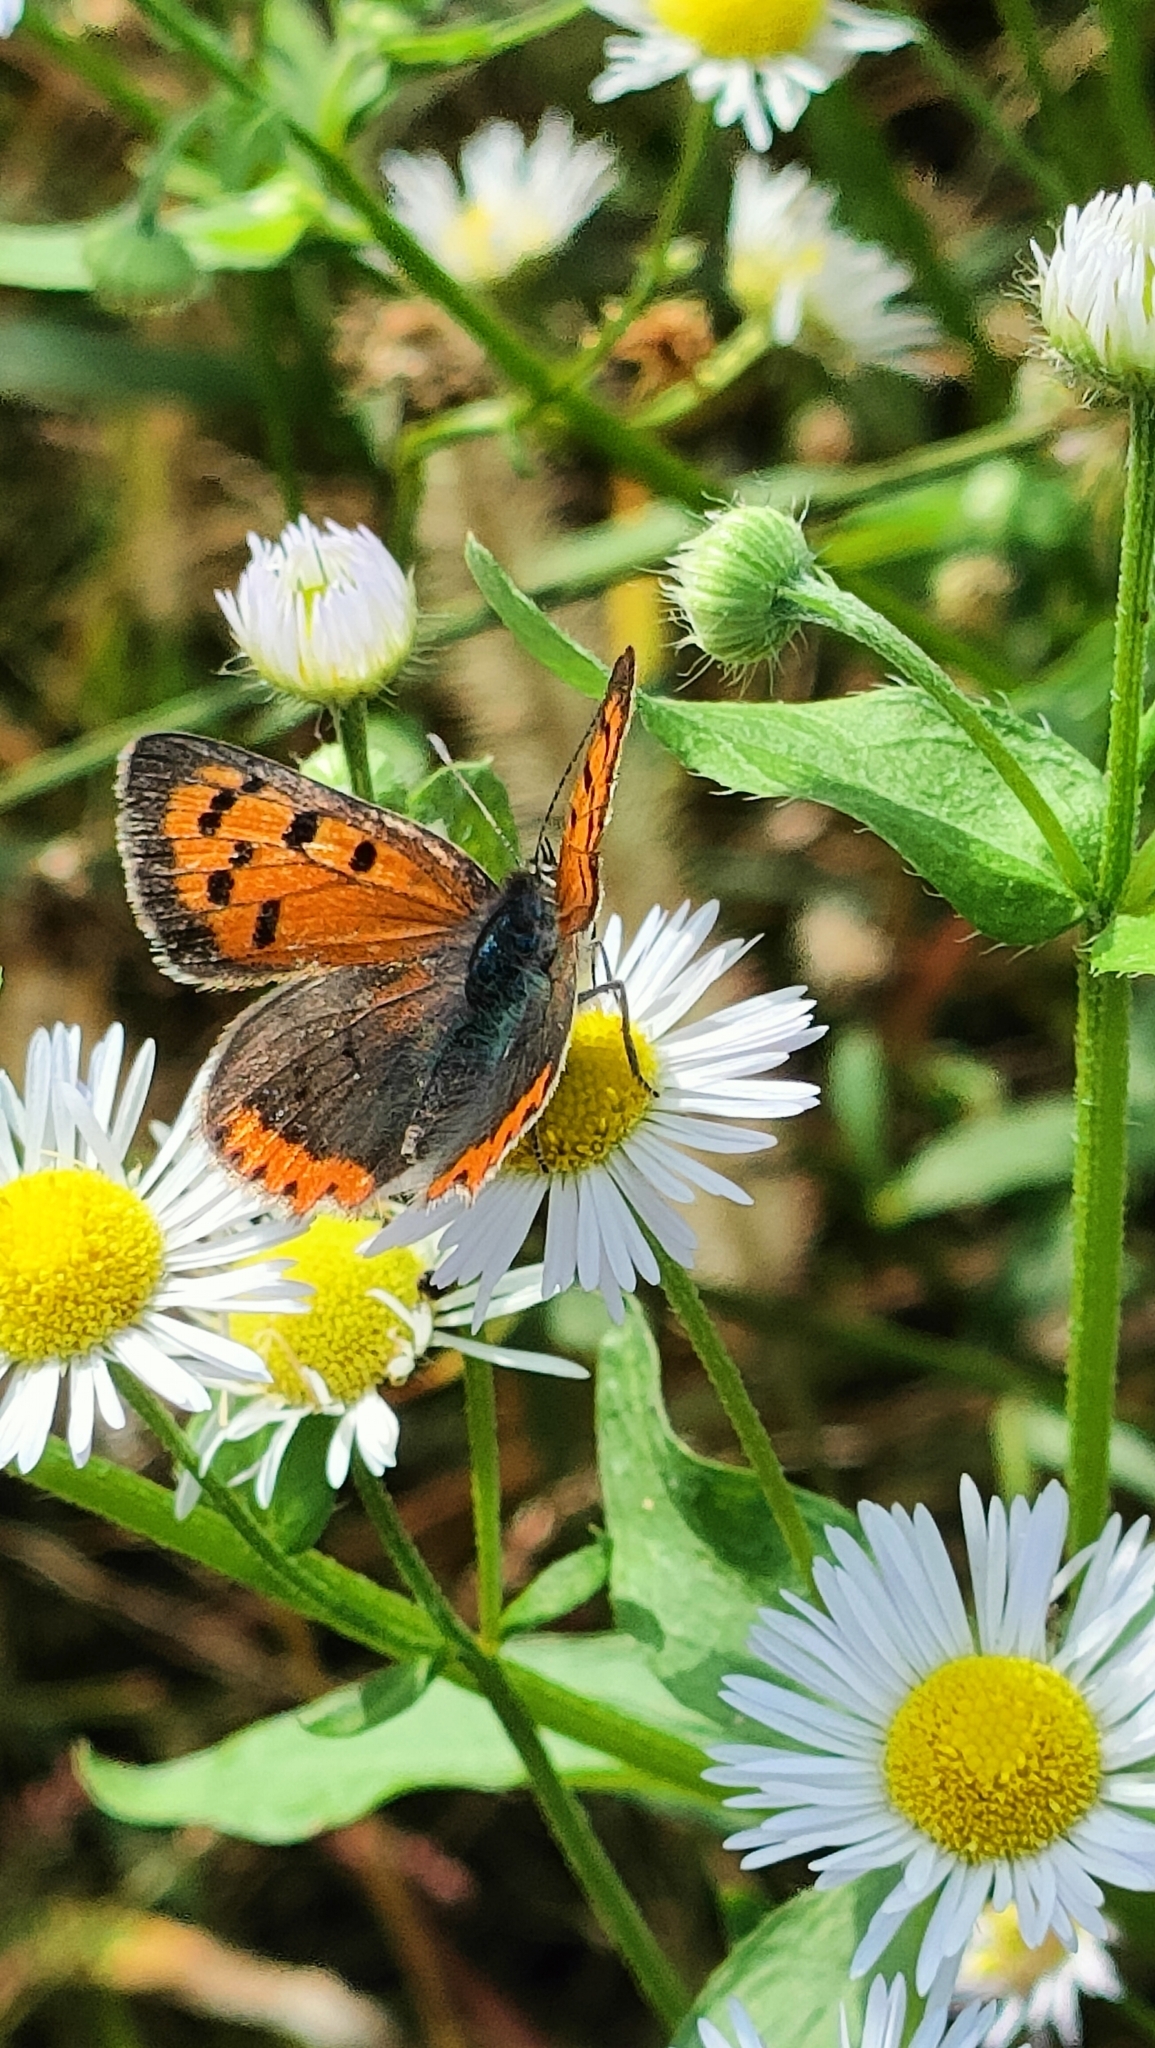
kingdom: Animalia
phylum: Arthropoda
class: Insecta
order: Lepidoptera
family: Lycaenidae
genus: Lycaena
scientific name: Lycaena phlaeas
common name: Small copper
